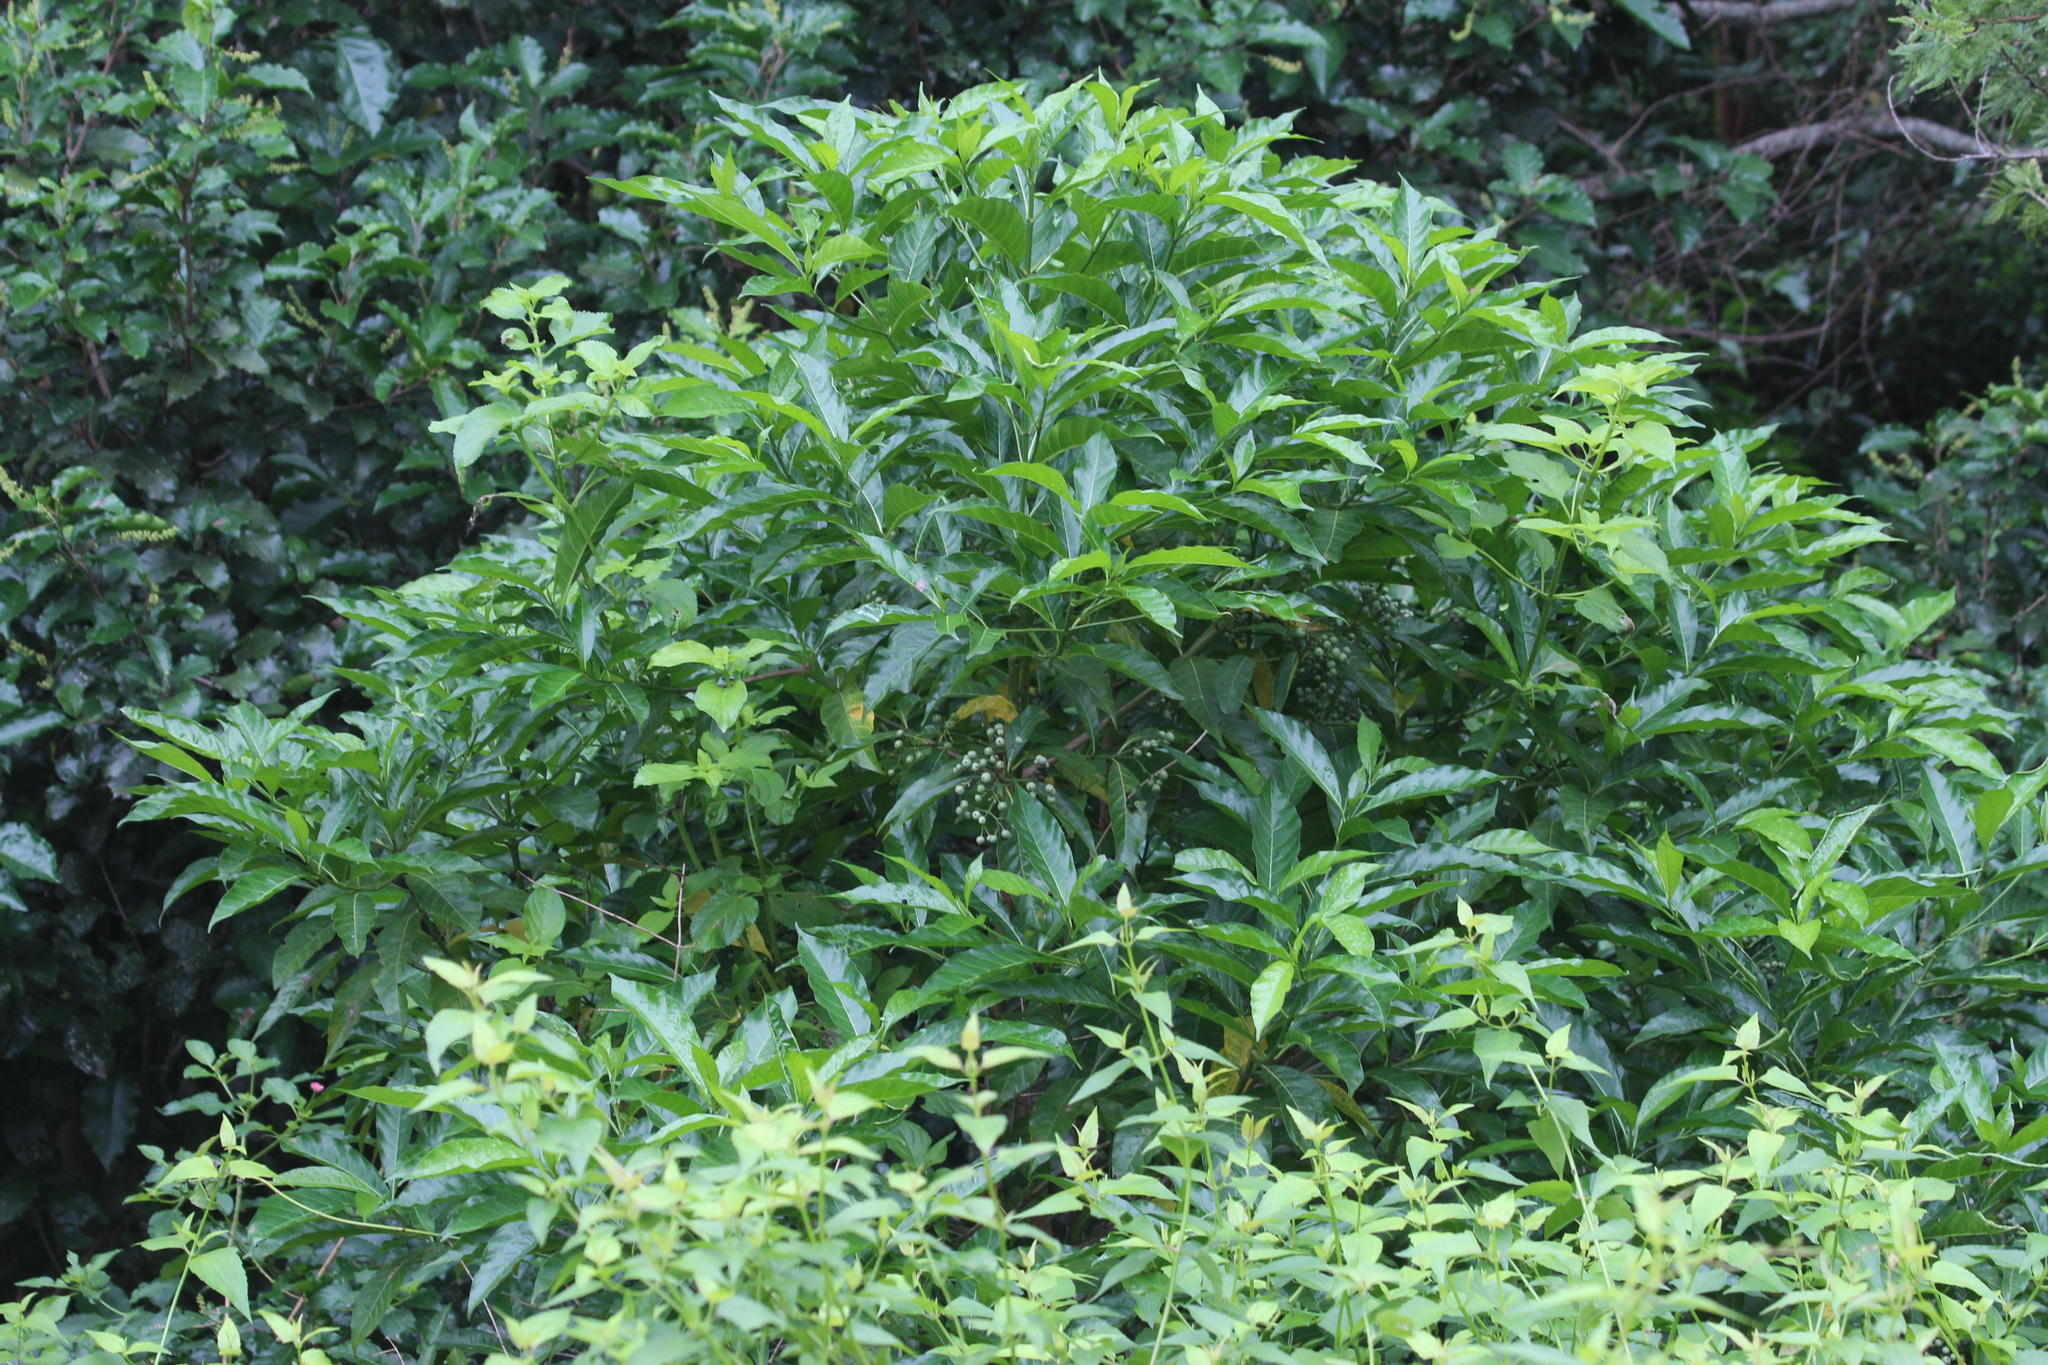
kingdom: Plantae
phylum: Tracheophyta
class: Magnoliopsida
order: Gentianales
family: Rubiaceae
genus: Tarenna
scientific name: Tarenna pavettoides
